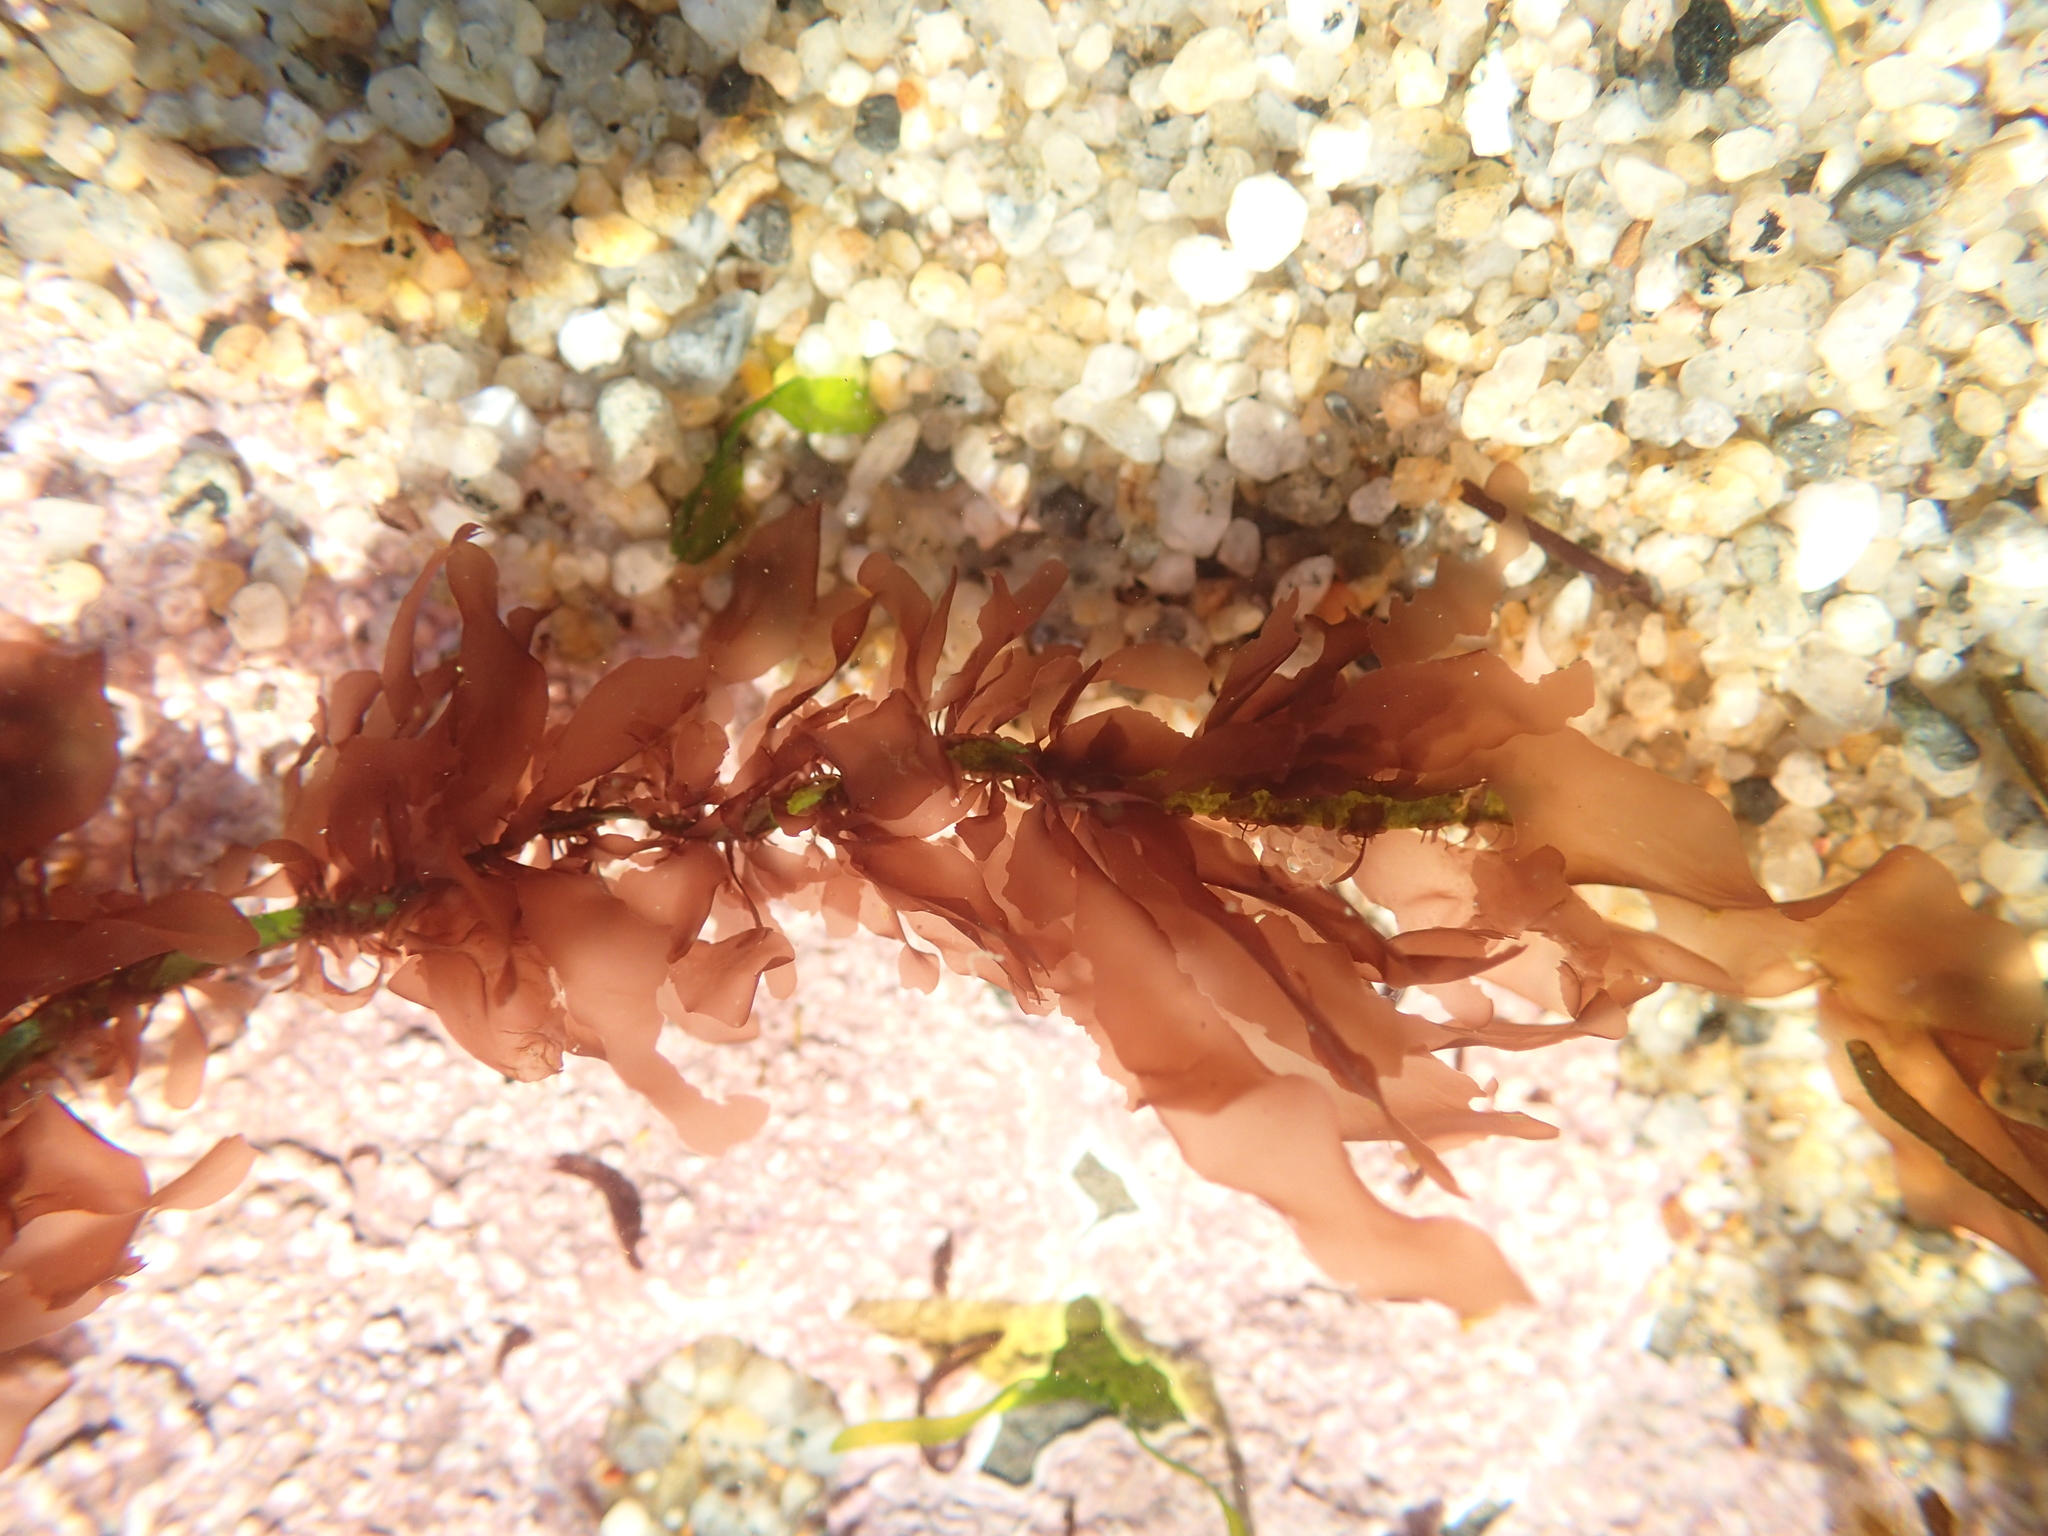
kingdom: Plantae
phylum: Rhodophyta
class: Compsopogonophyceae
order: Erythropeltidales
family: Erythrotrichiaceae
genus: Smithora
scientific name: Smithora naiadum
